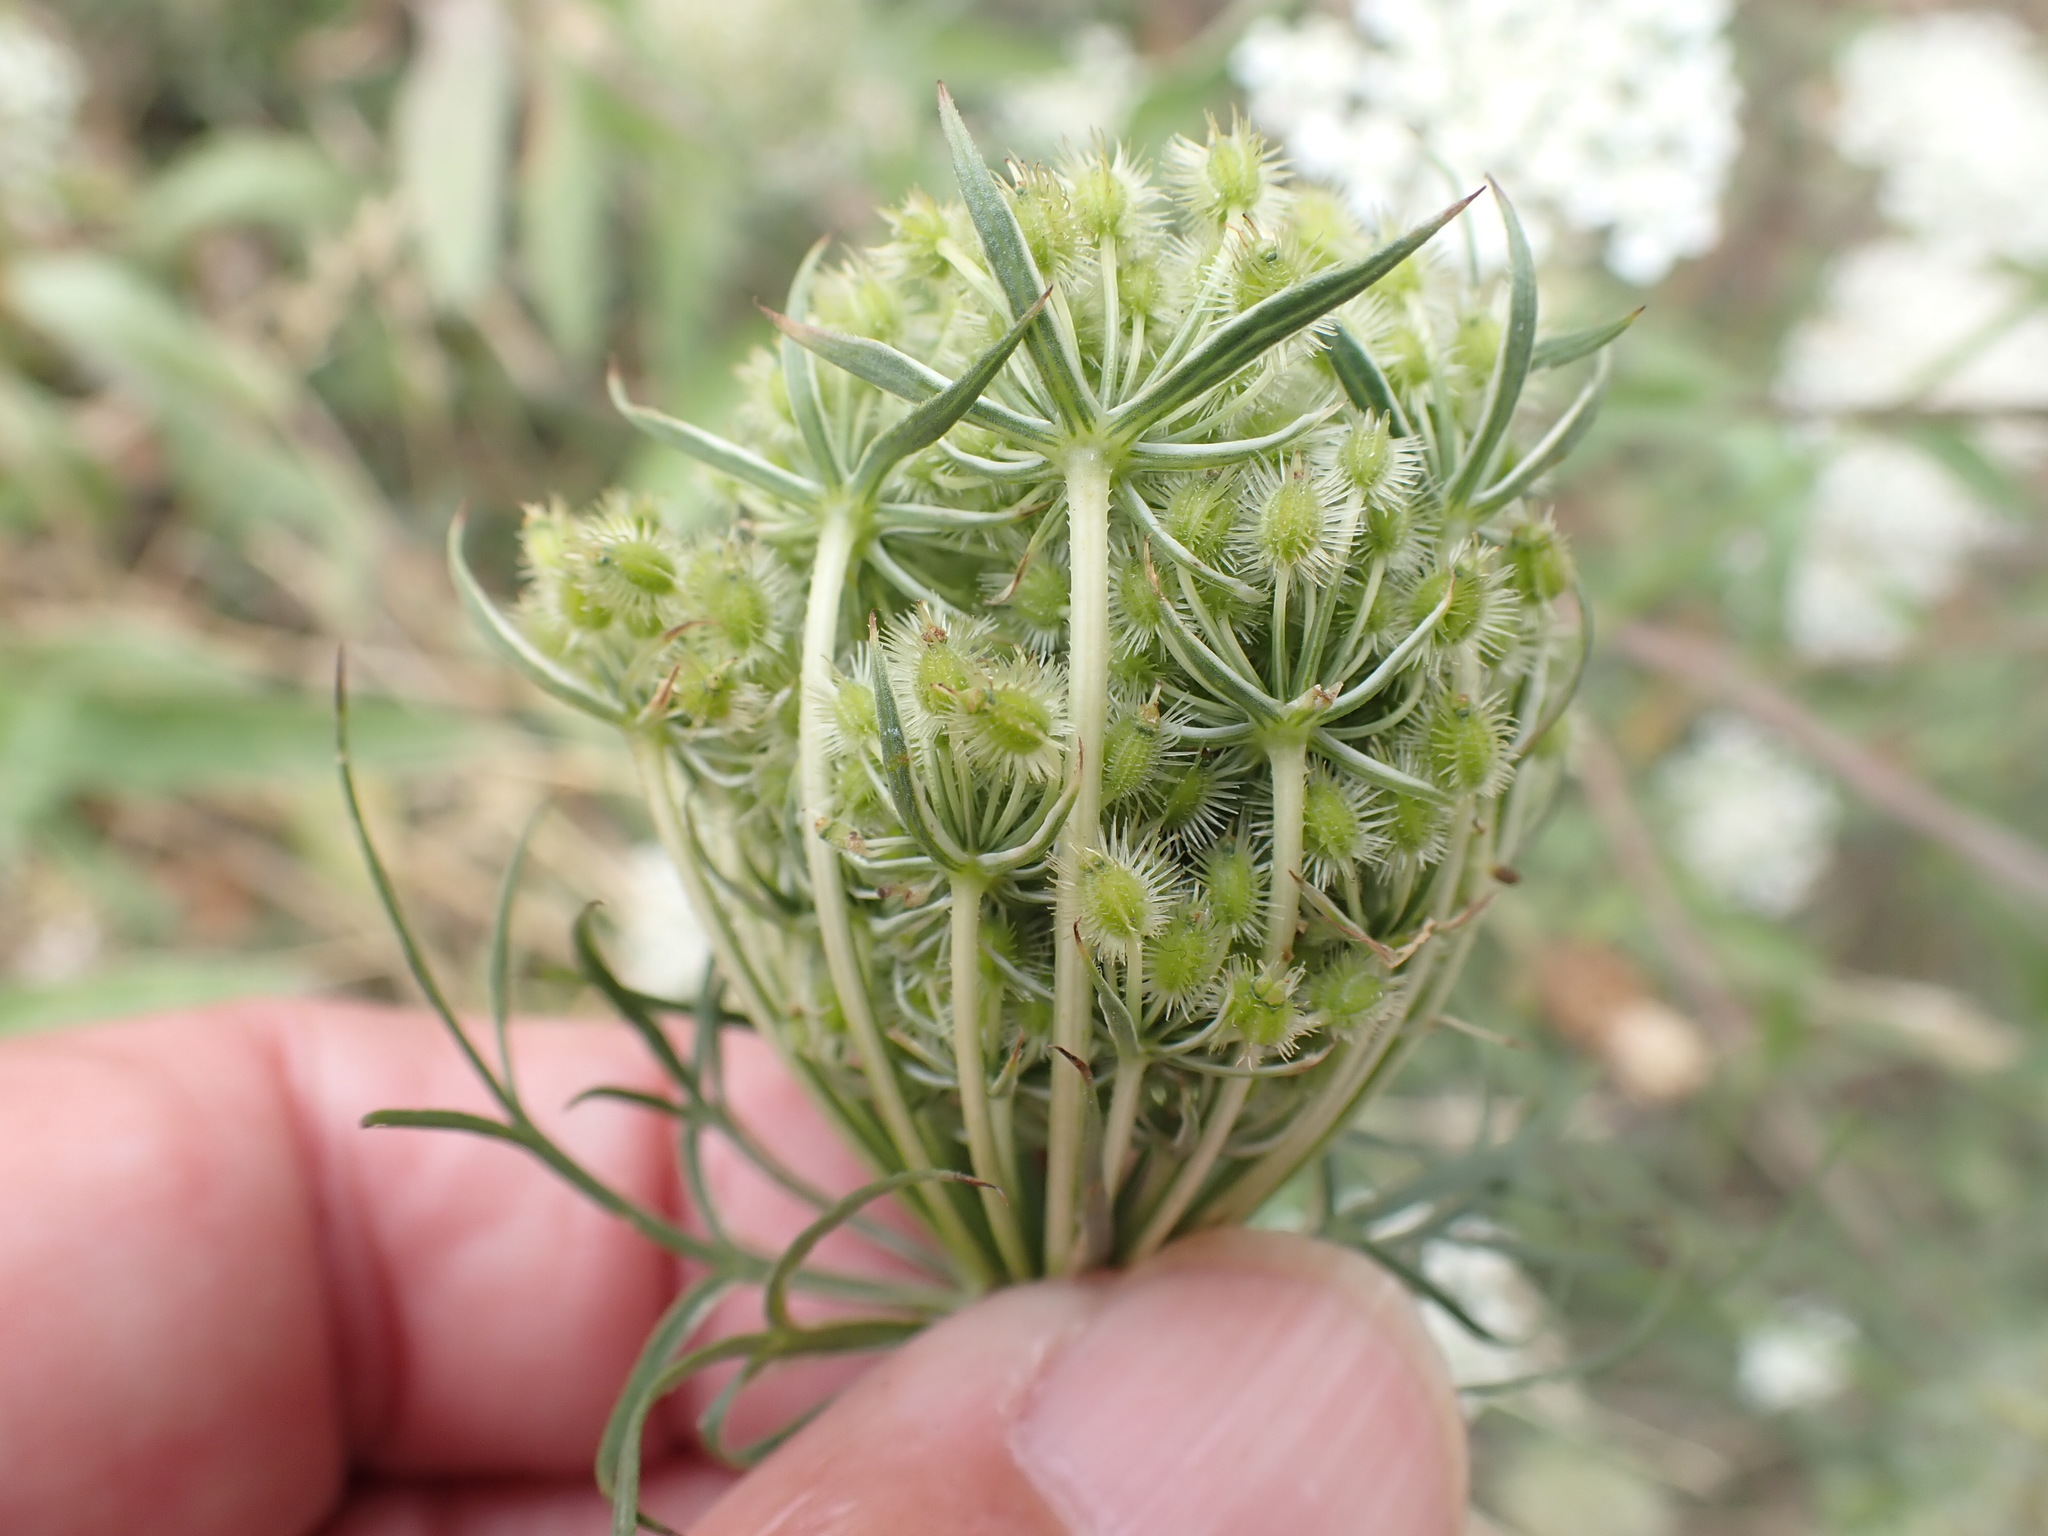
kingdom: Plantae
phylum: Tracheophyta
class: Magnoliopsida
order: Apiales
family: Apiaceae
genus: Daucus
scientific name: Daucus carota
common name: Wild carrot
